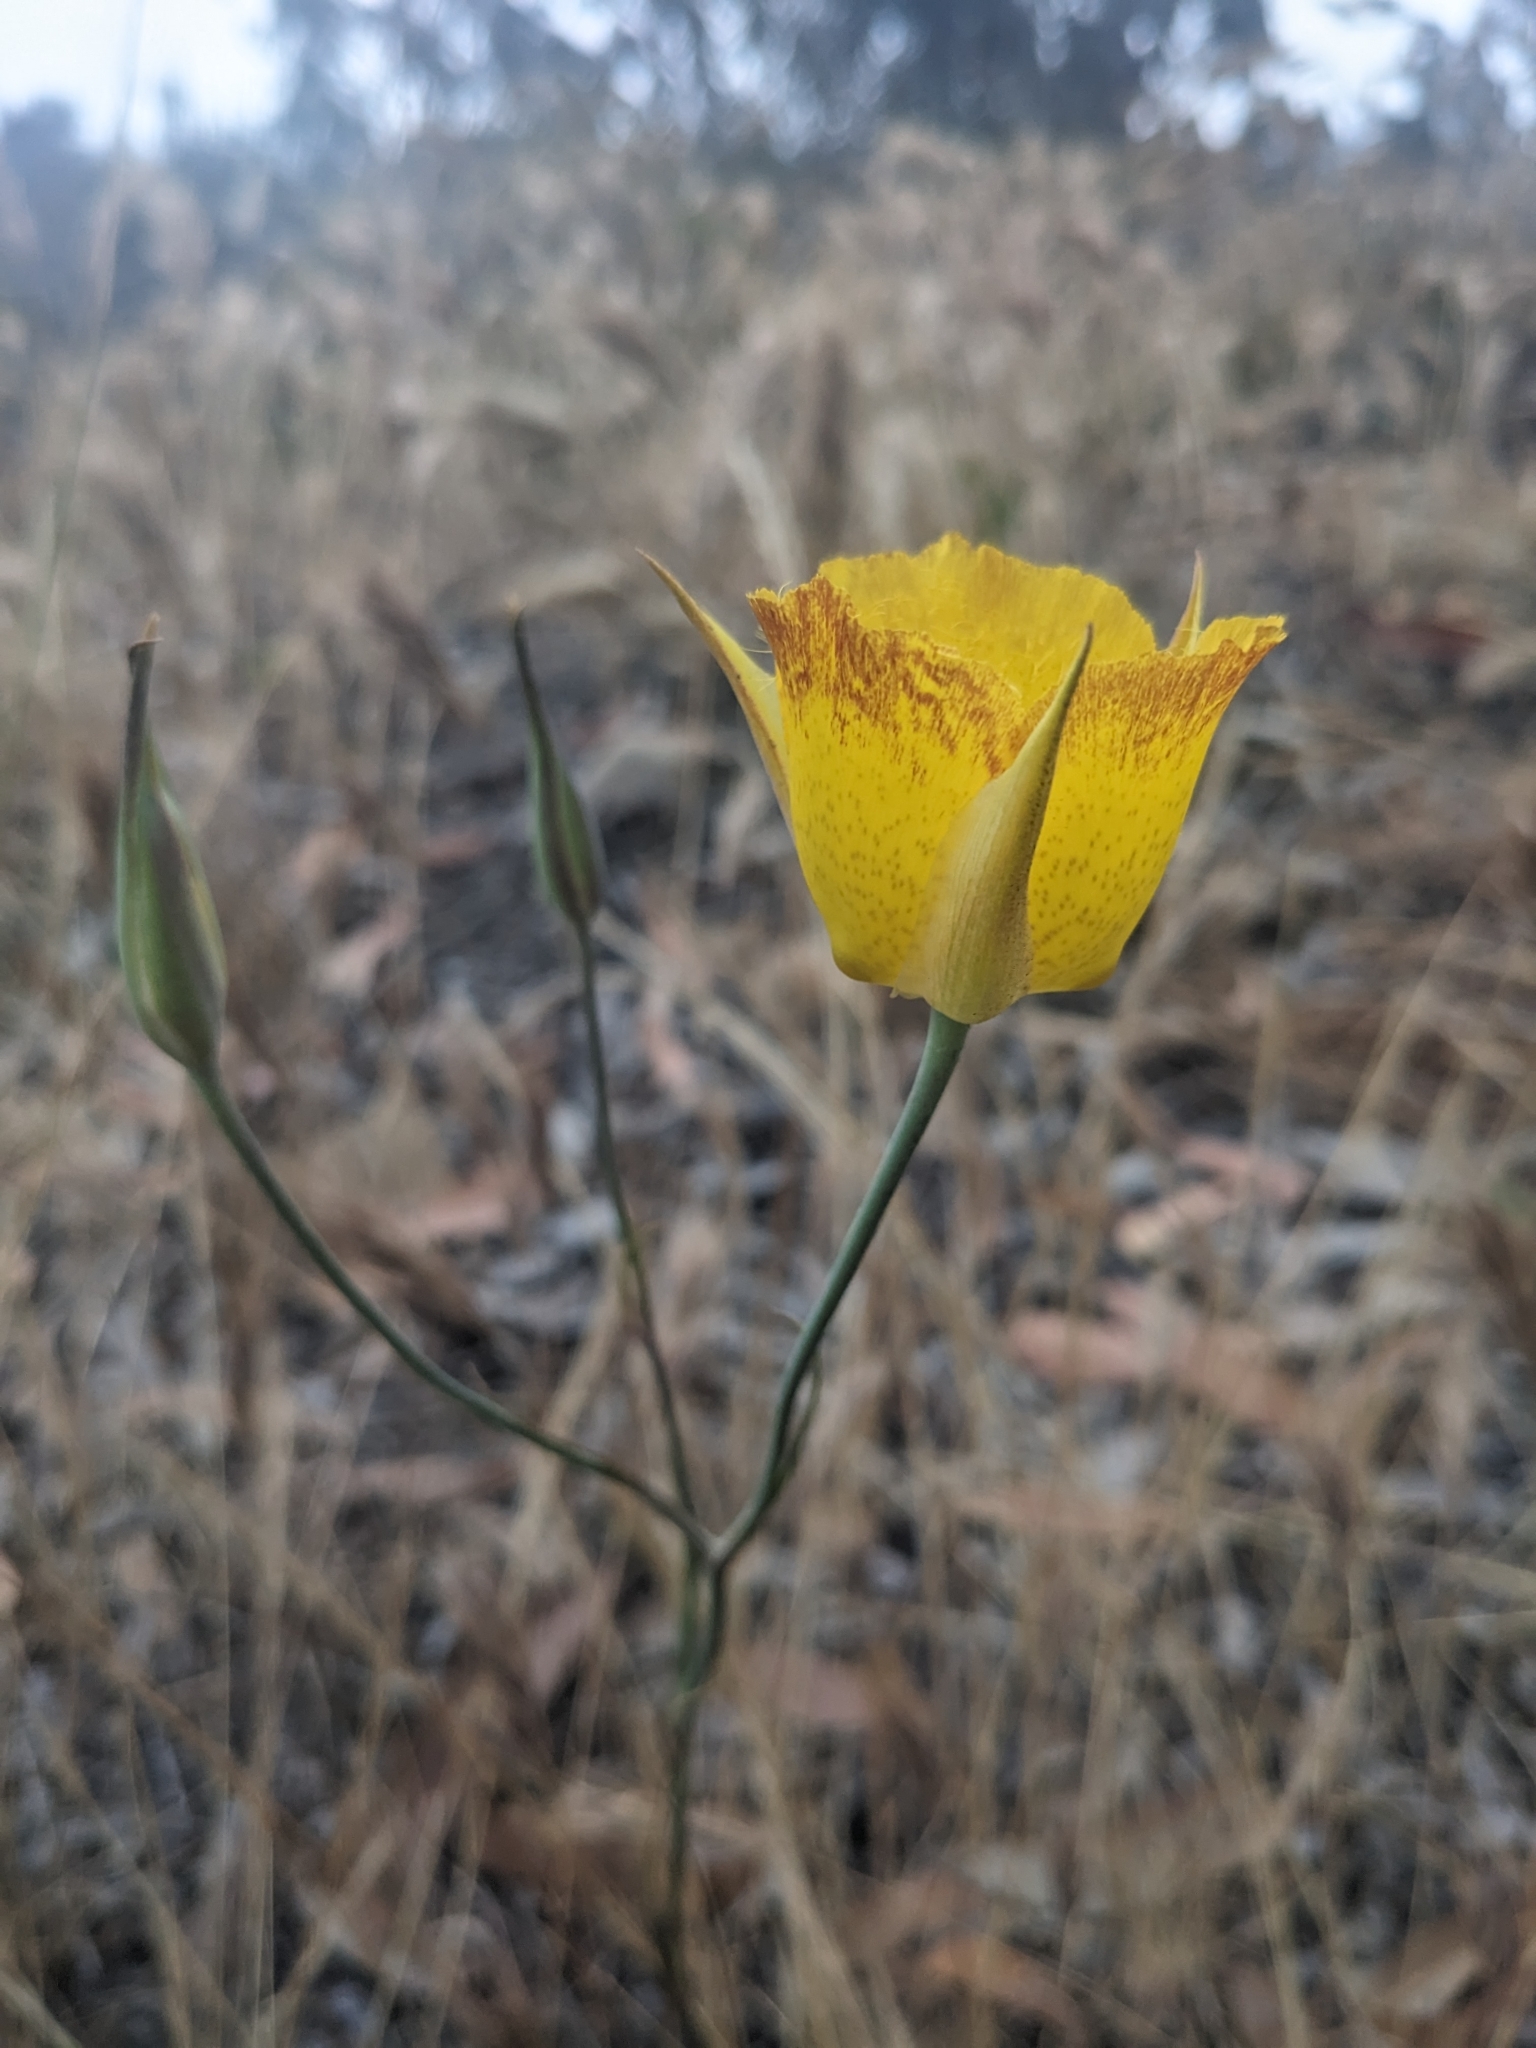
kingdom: Plantae
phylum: Tracheophyta
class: Liliopsida
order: Liliales
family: Liliaceae
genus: Calochortus
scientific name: Calochortus weedii
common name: Weed's mariposa-lily
